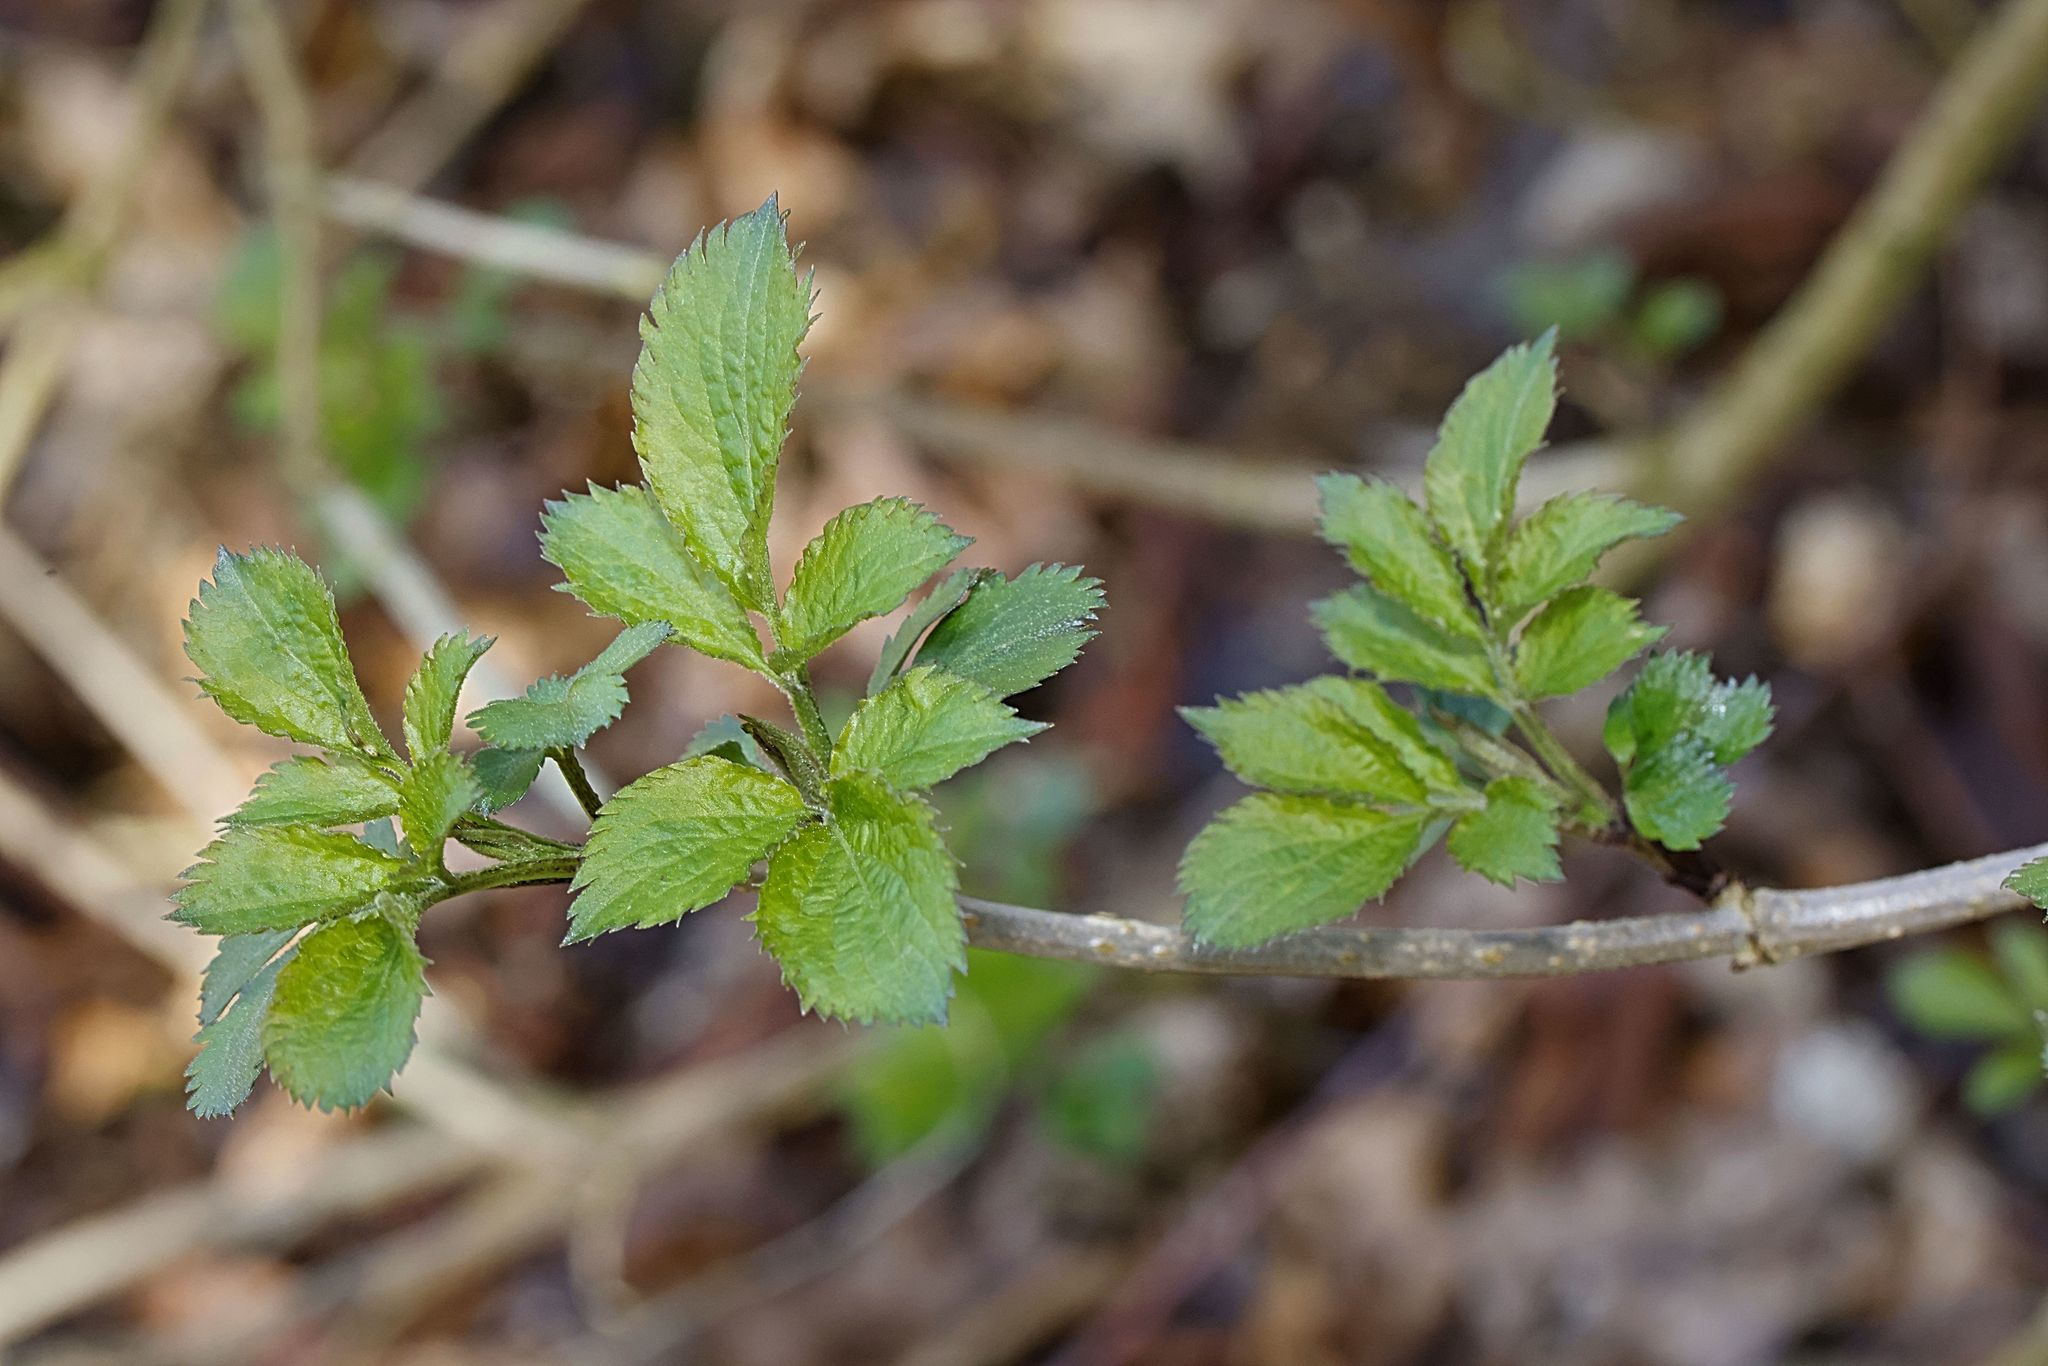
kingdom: Plantae
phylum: Tracheophyta
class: Magnoliopsida
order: Dipsacales
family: Viburnaceae
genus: Sambucus
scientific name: Sambucus nigra
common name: Elder
